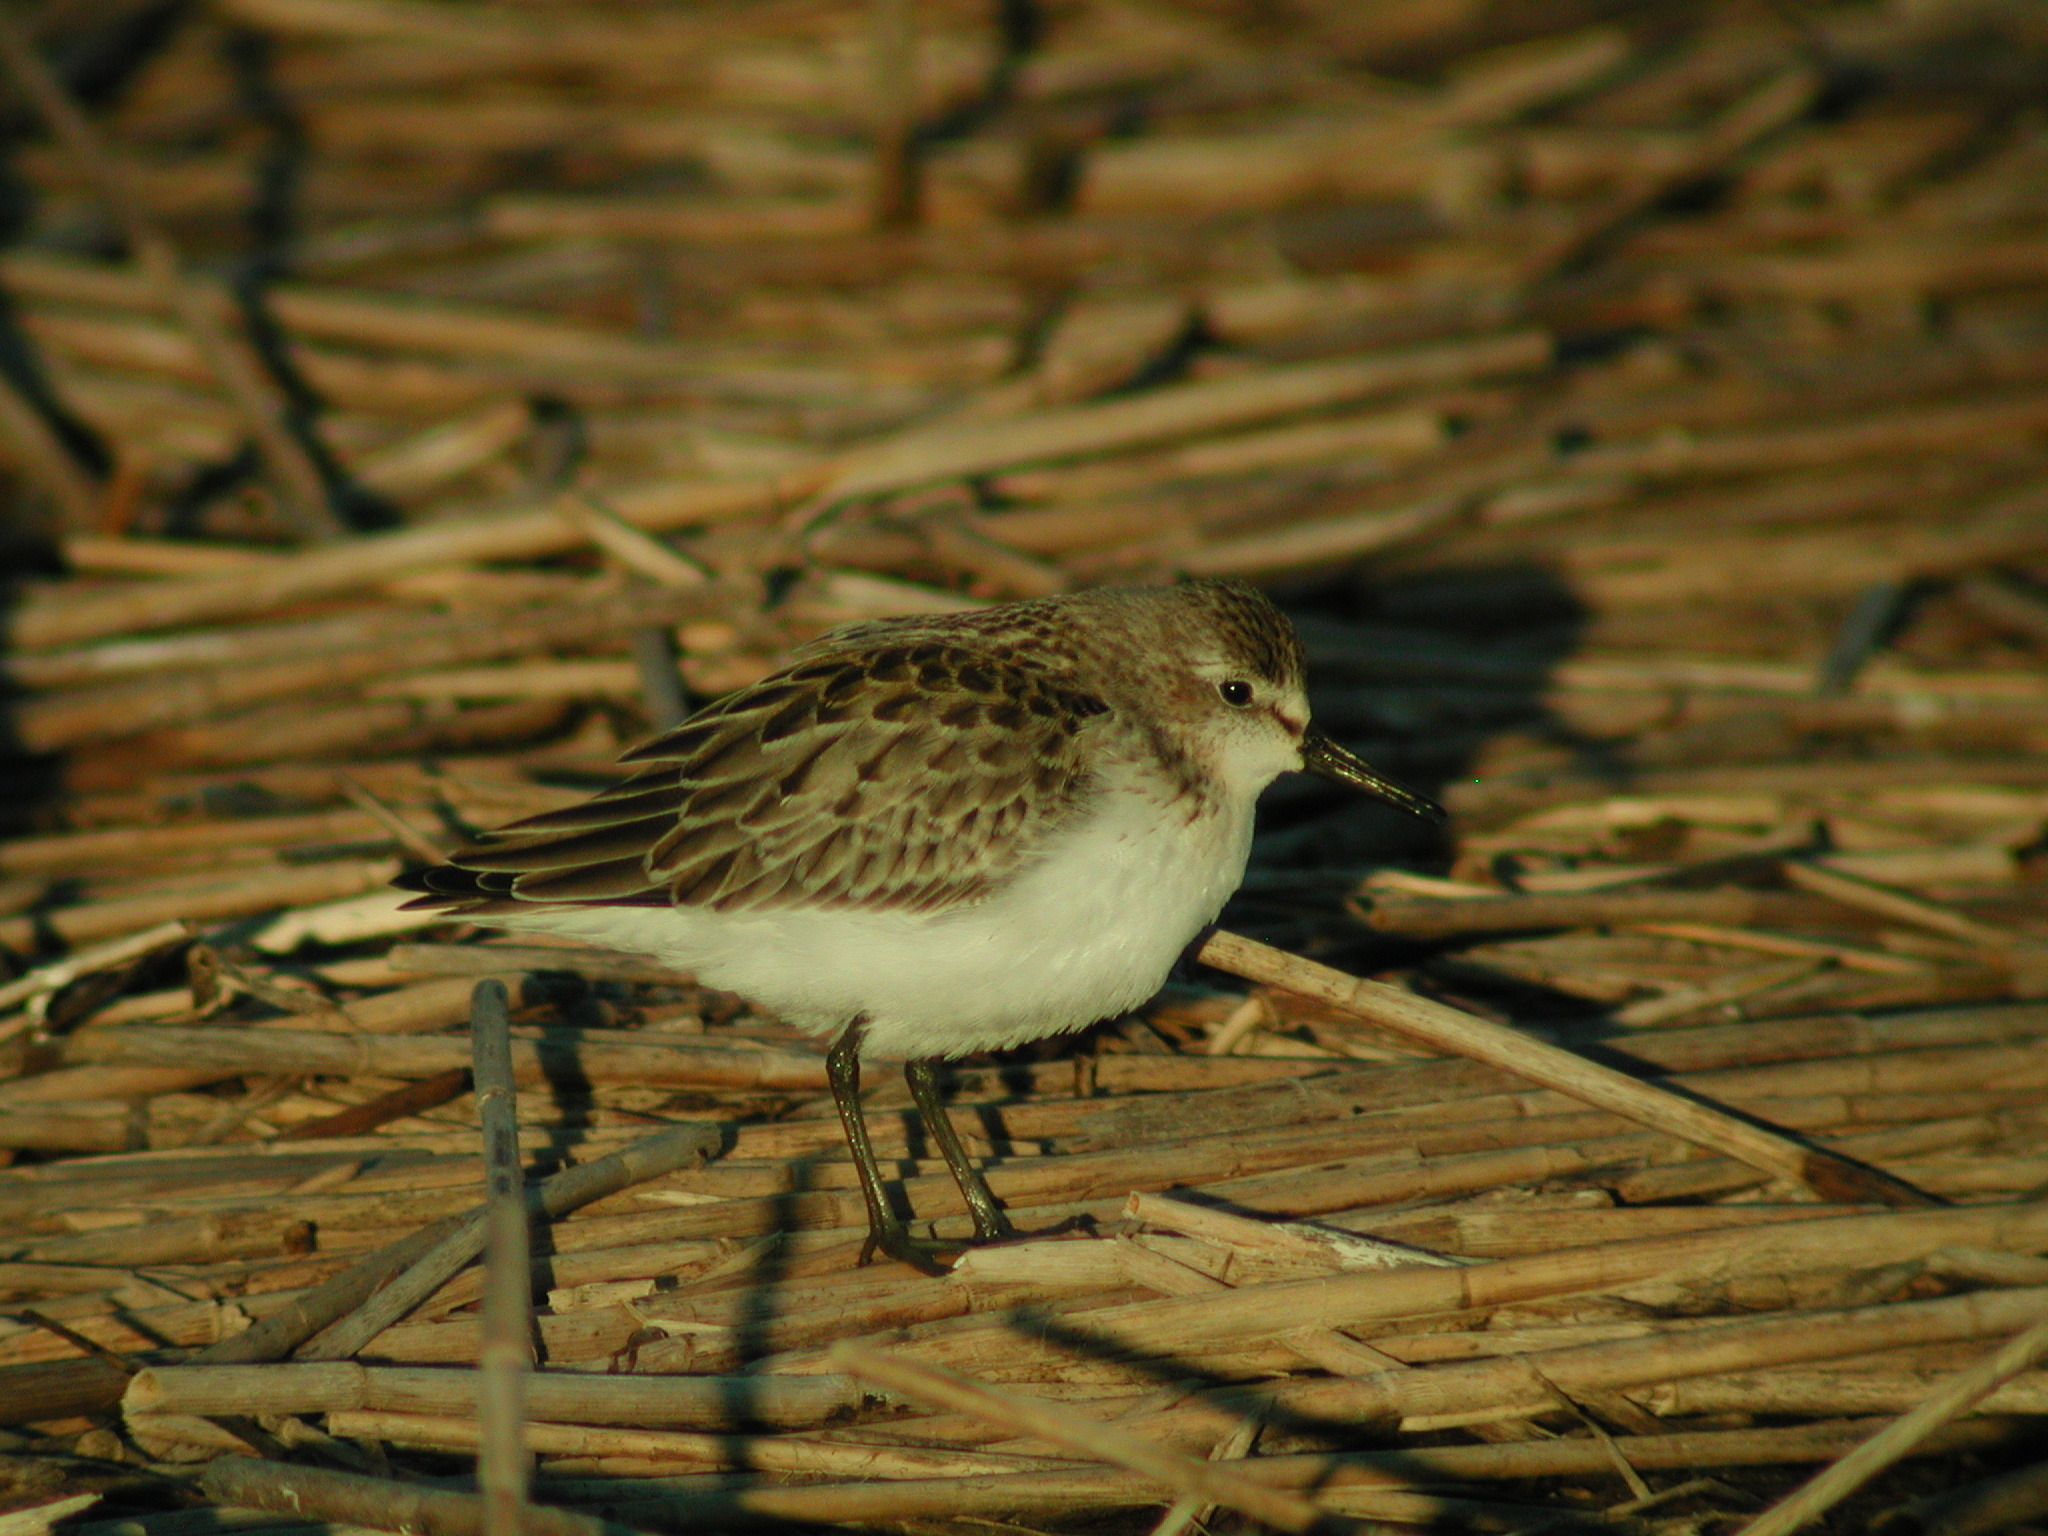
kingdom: Animalia
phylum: Chordata
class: Aves
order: Charadriiformes
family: Scolopacidae
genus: Calidris
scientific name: Calidris pusilla
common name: Semipalmated sandpiper
